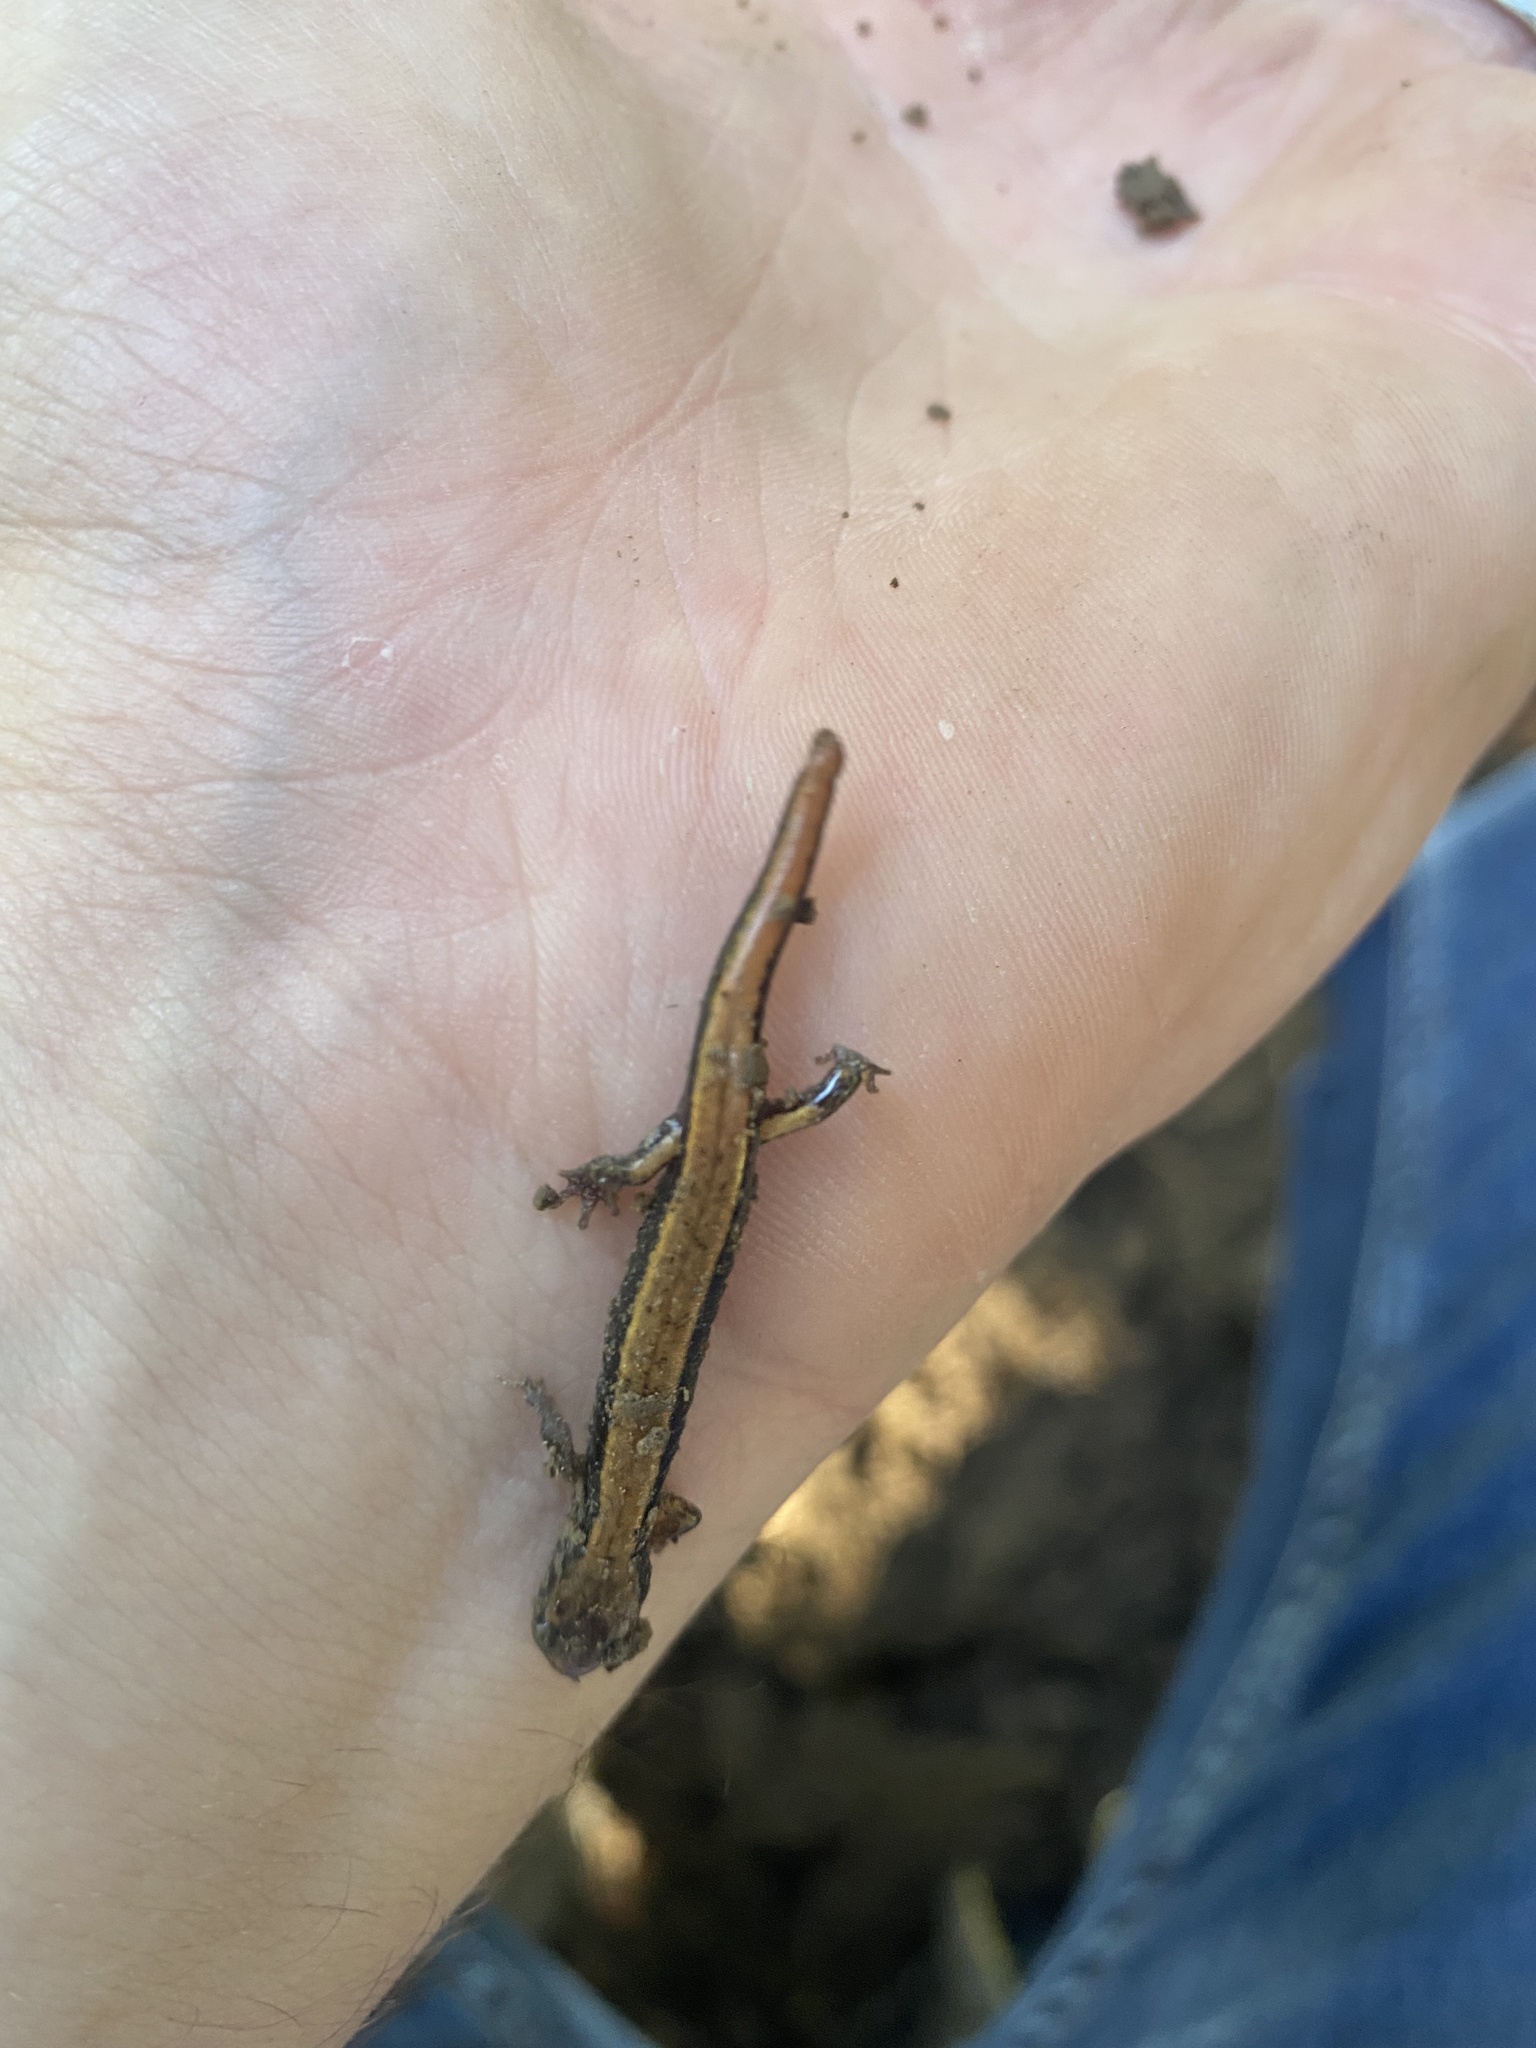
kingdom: Animalia
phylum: Chordata
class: Amphibia
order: Caudata
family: Plethodontidae
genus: Plethodon
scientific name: Plethodon vehiculum
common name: Western red-backed salamander
